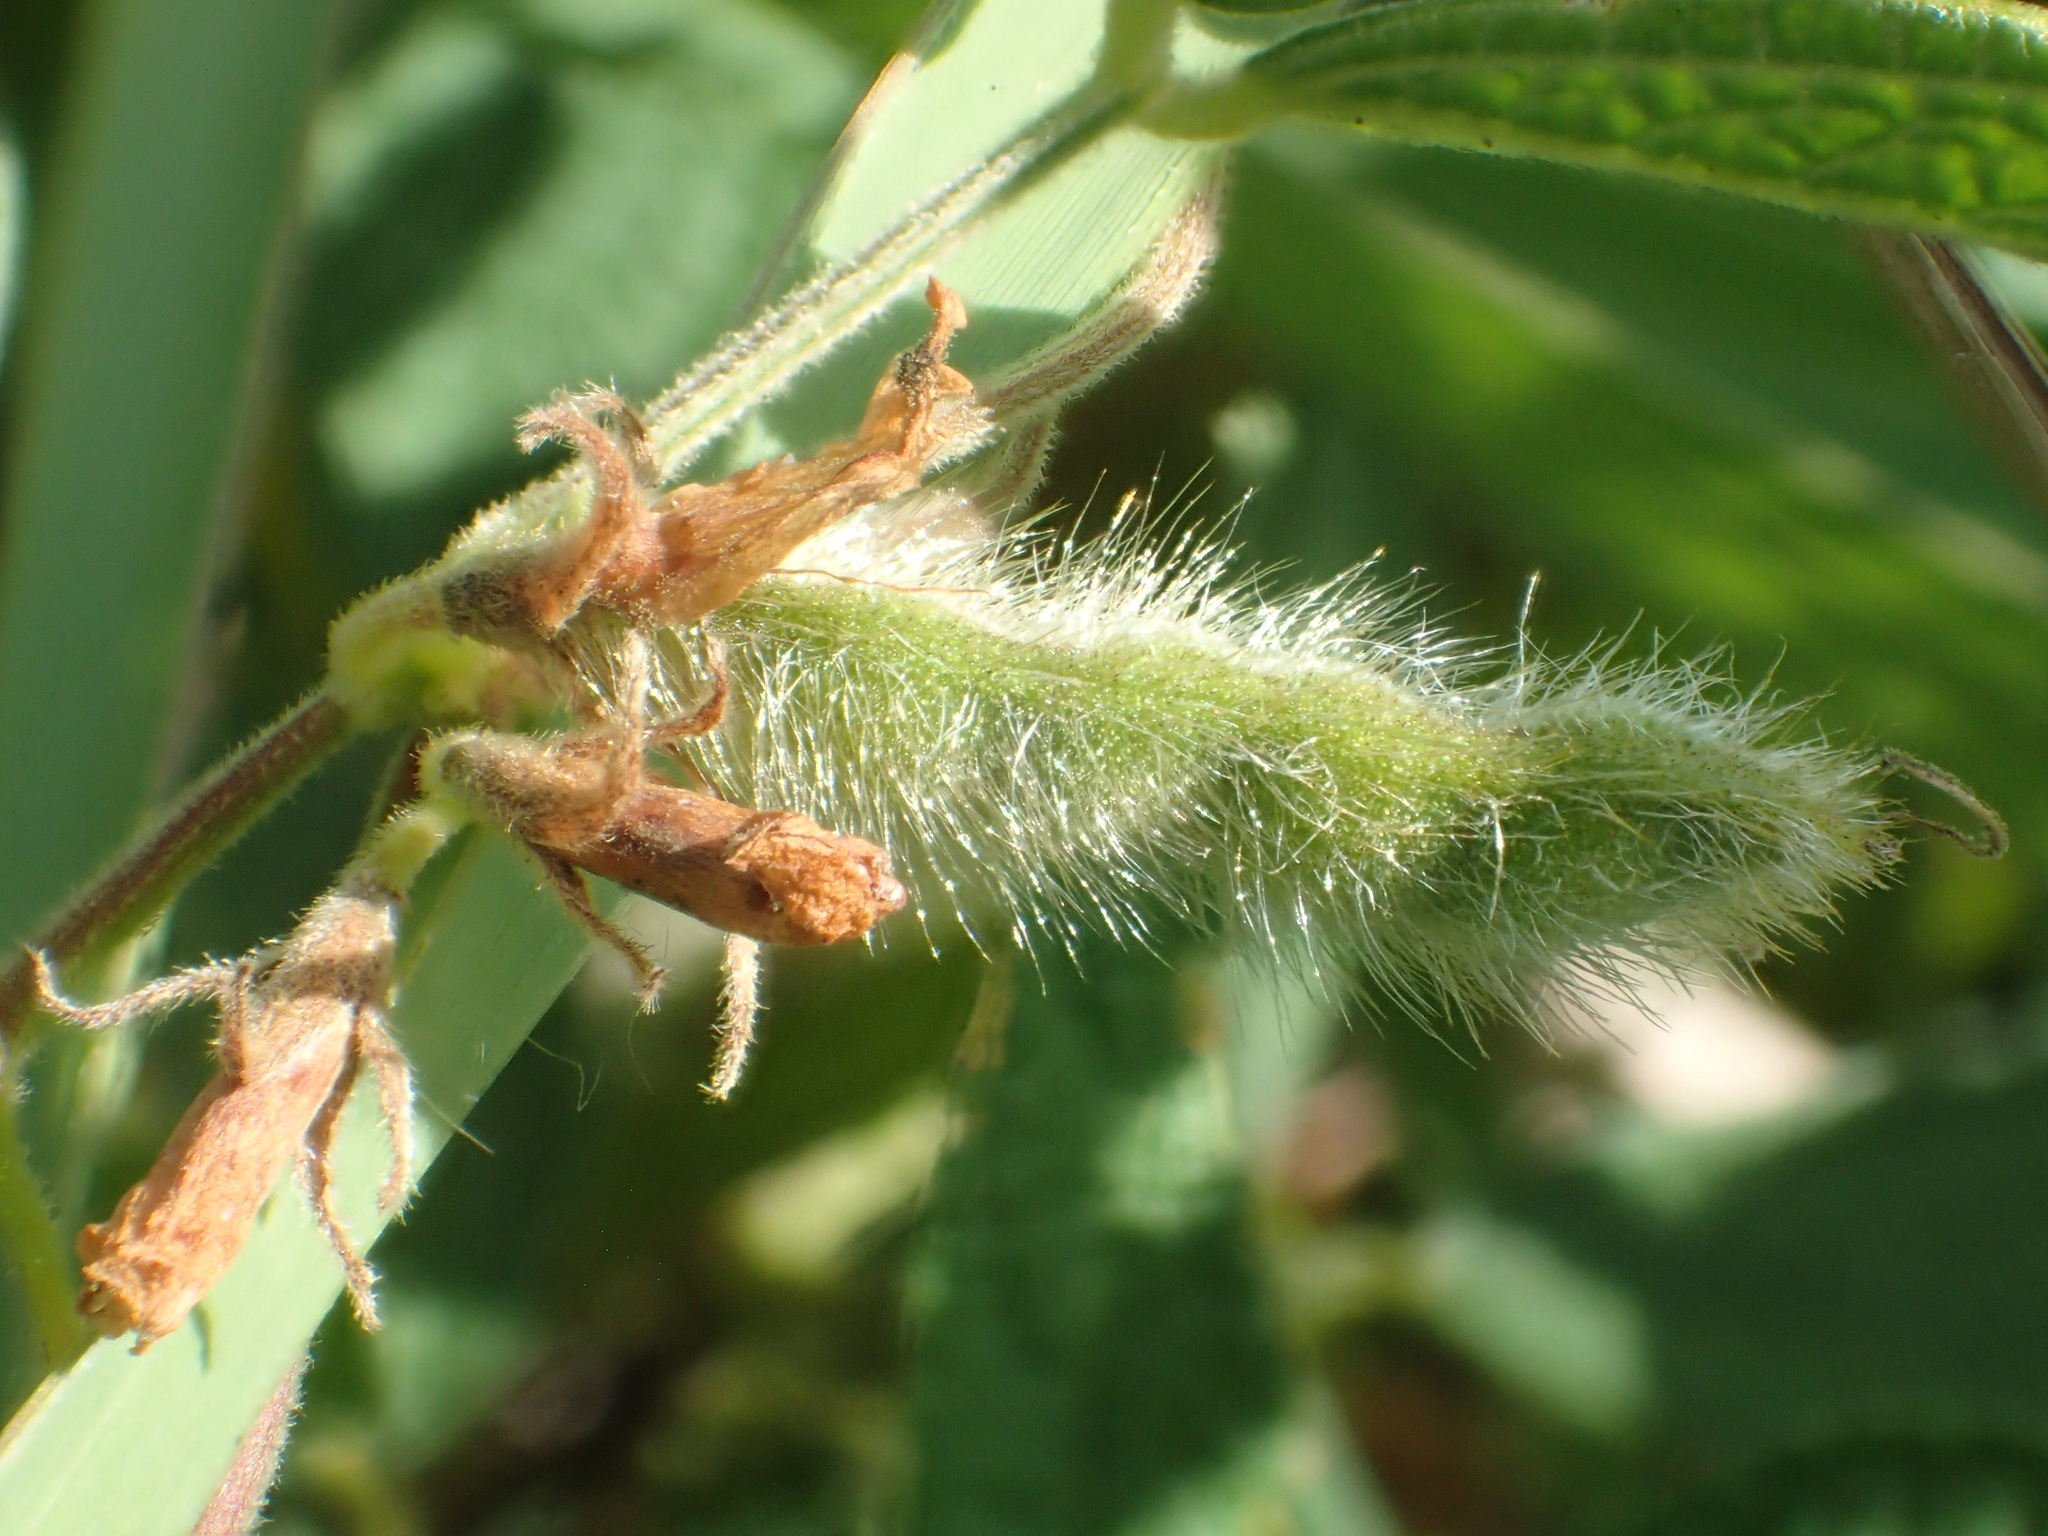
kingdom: Plantae
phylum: Tracheophyta
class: Magnoliopsida
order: Fabales
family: Fabaceae
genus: Cajanus
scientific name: Cajanus scarabaeoides
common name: Showy pigeonpea
